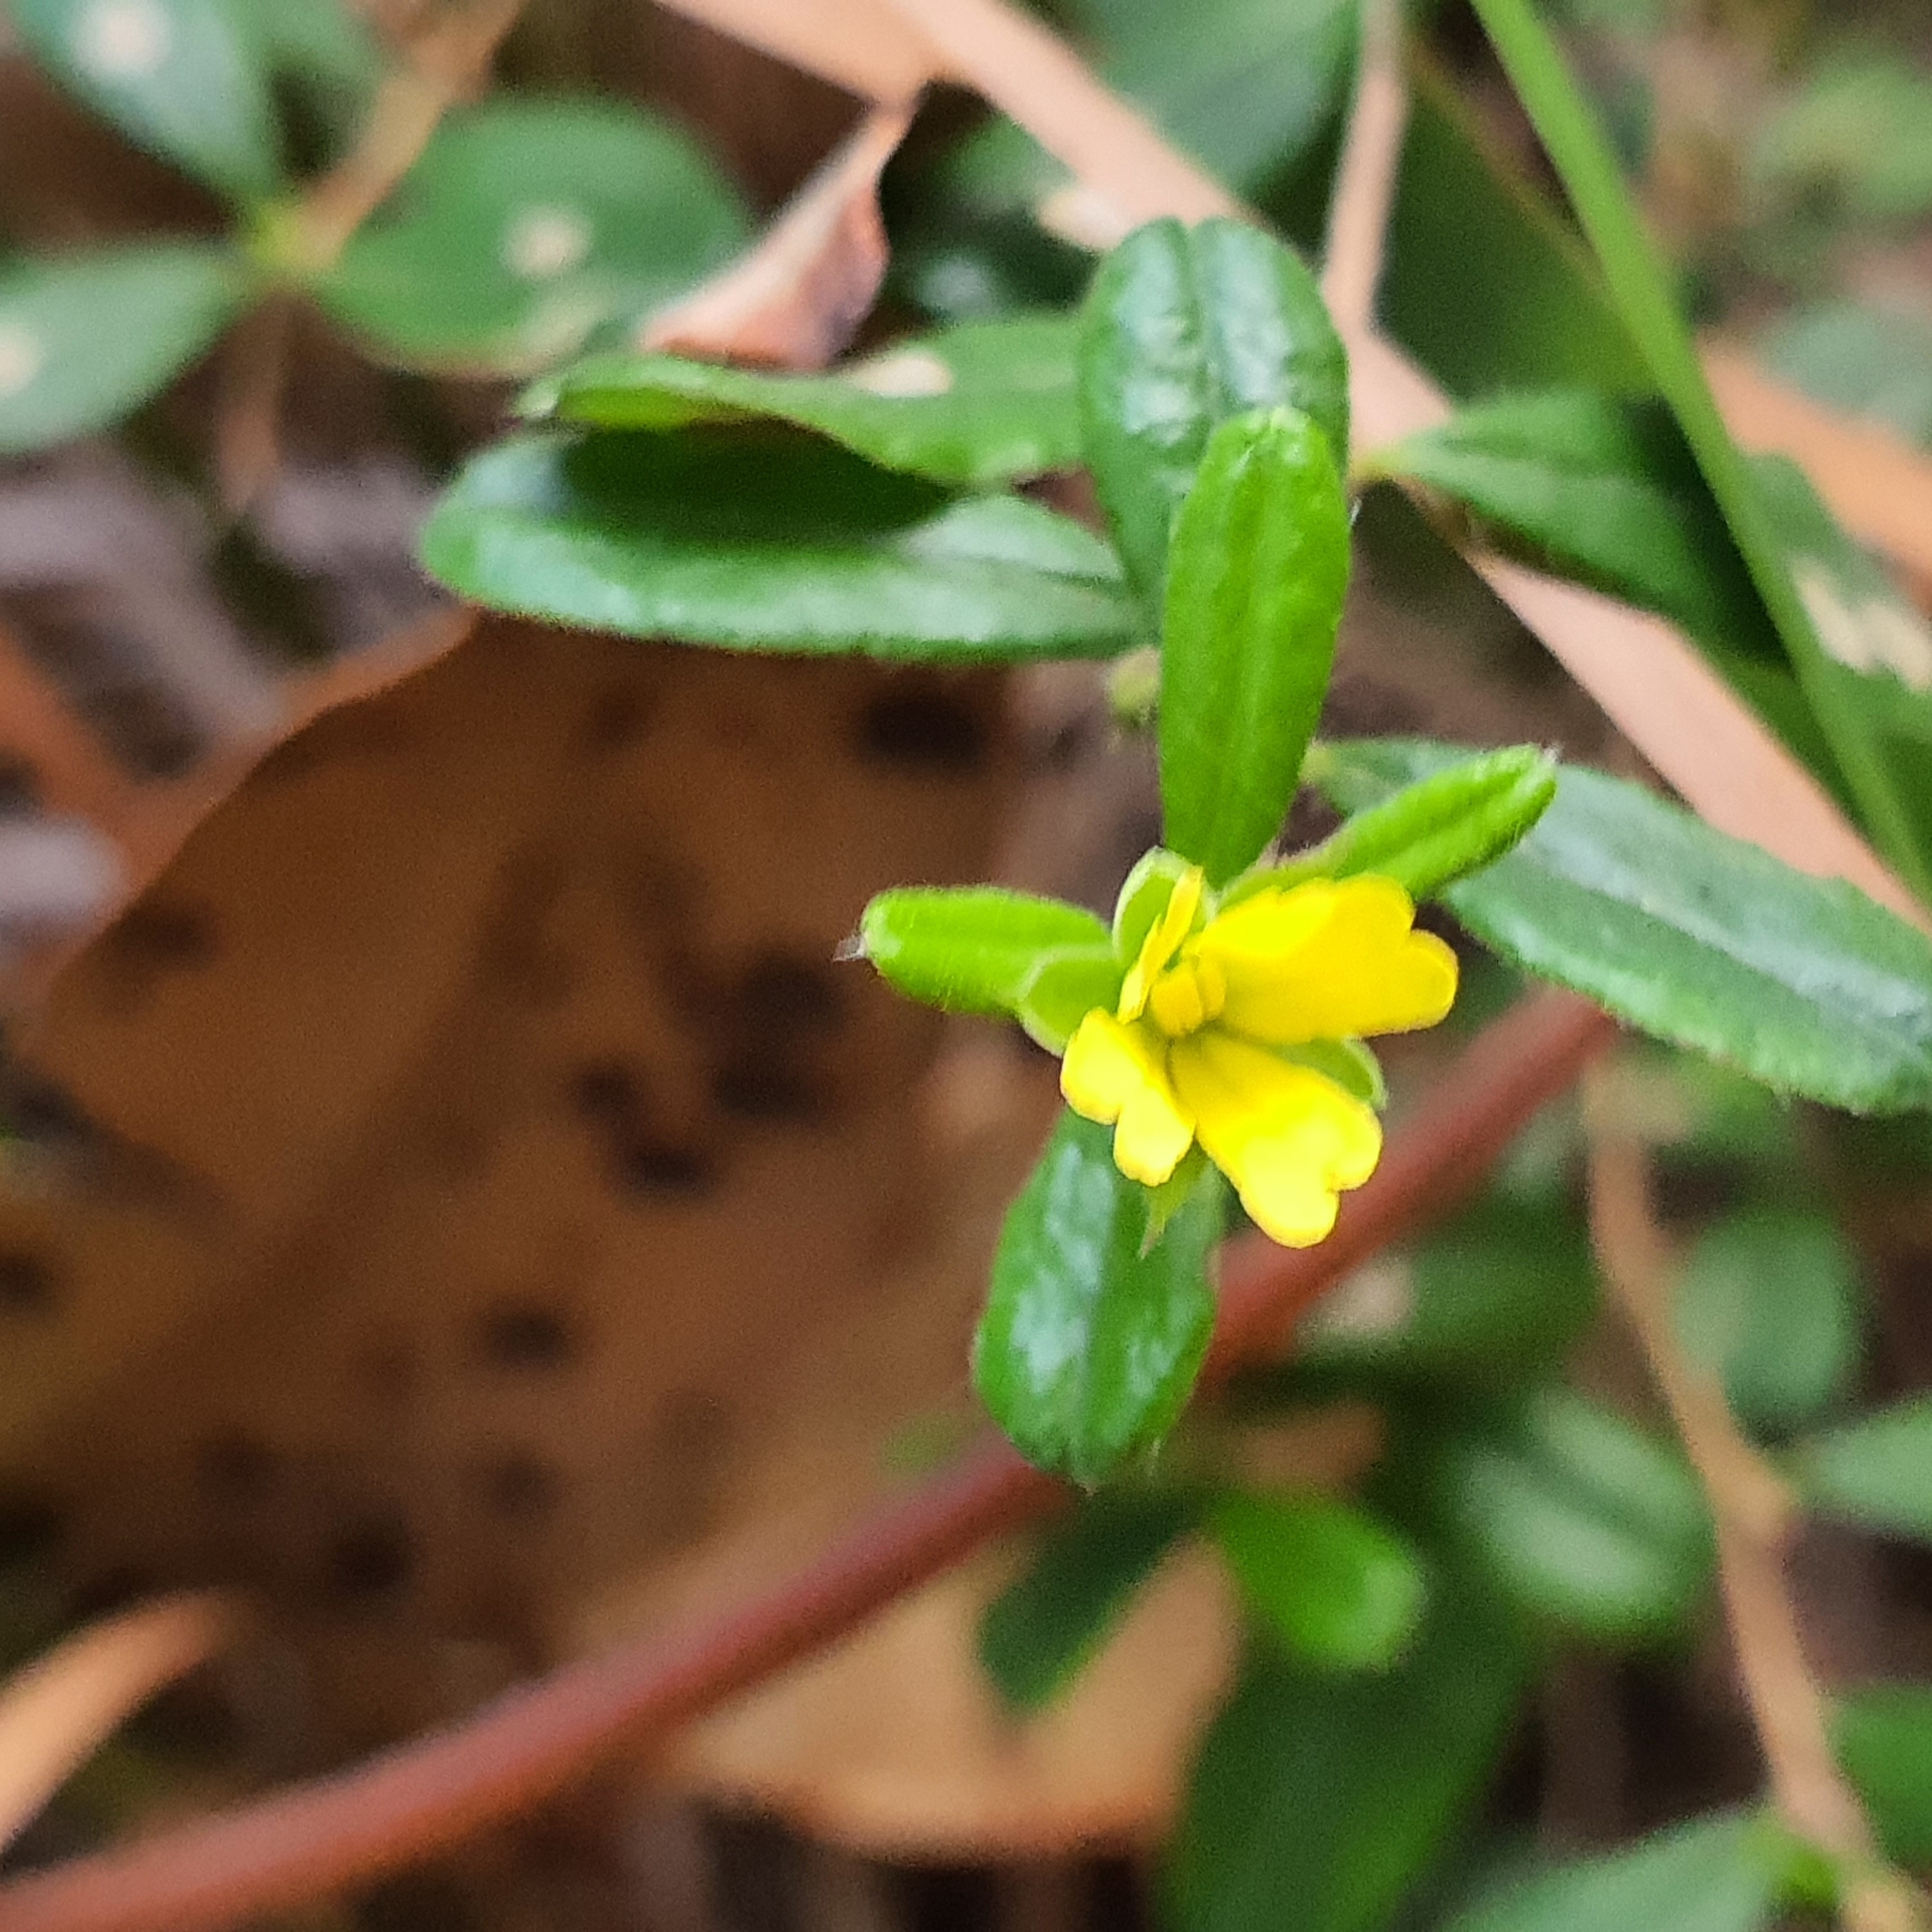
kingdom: Plantae
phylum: Tracheophyta
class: Magnoliopsida
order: Dilleniales
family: Dilleniaceae
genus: Hibbertia
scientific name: Hibbertia aspera
